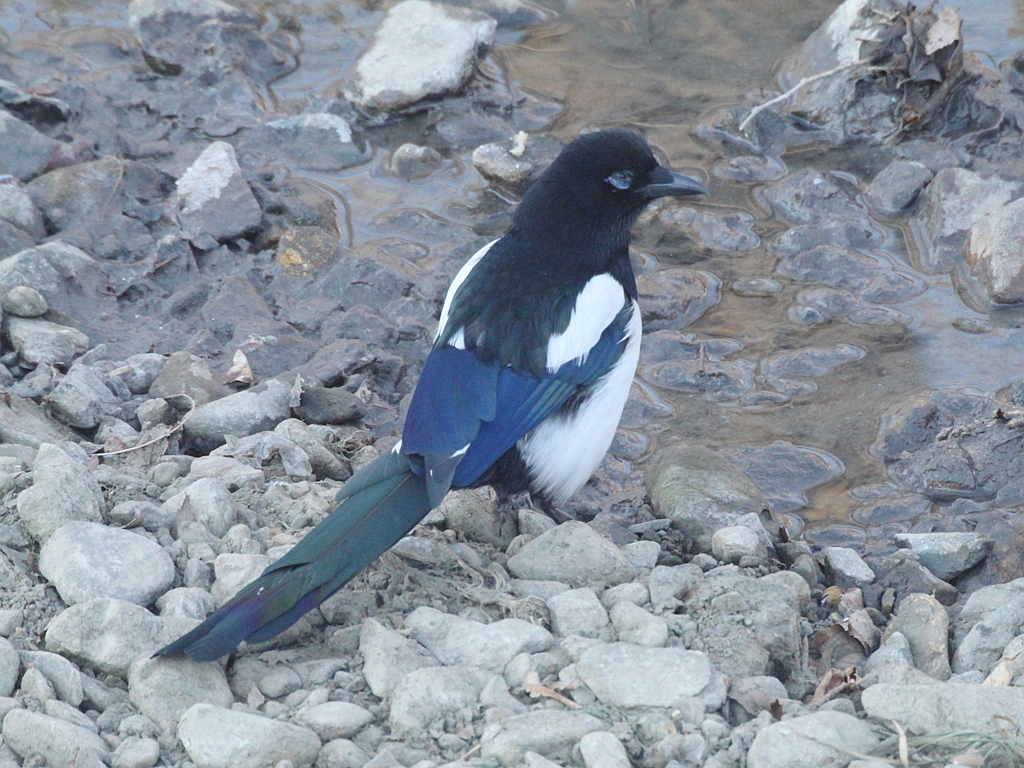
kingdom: Animalia
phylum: Chordata
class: Aves
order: Passeriformes
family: Corvidae
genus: Pica
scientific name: Pica serica
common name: Oriental magpie
